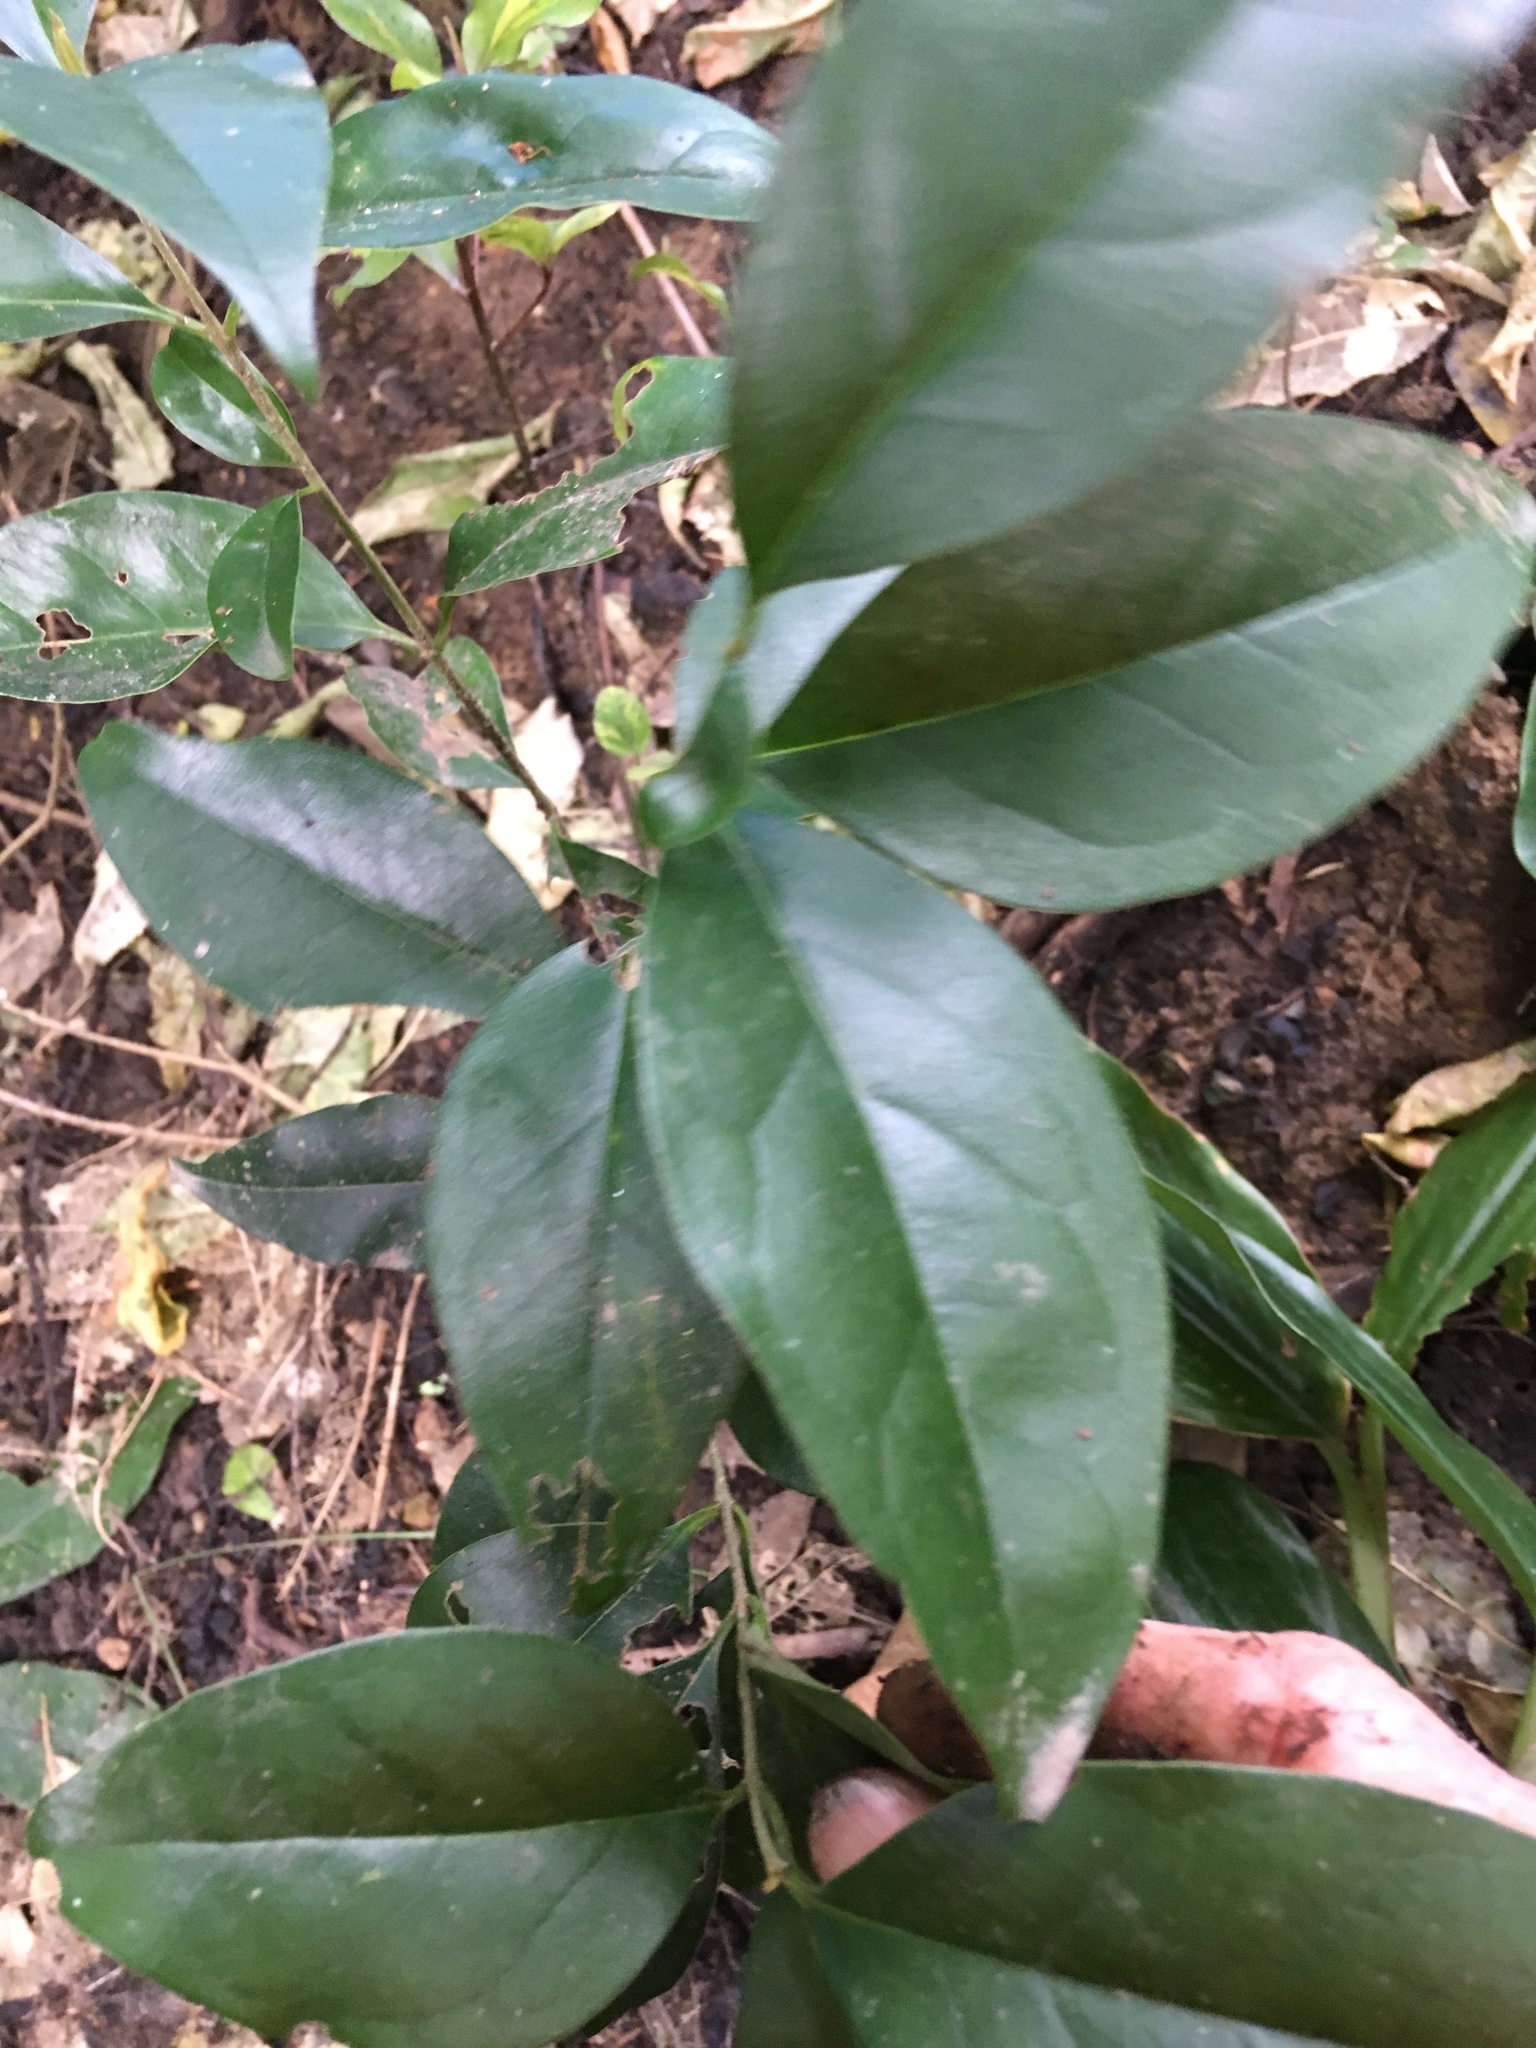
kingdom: Plantae
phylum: Tracheophyta
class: Magnoliopsida
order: Lamiales
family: Oleaceae
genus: Ligustrum
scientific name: Ligustrum lucidum
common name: Glossy privet
